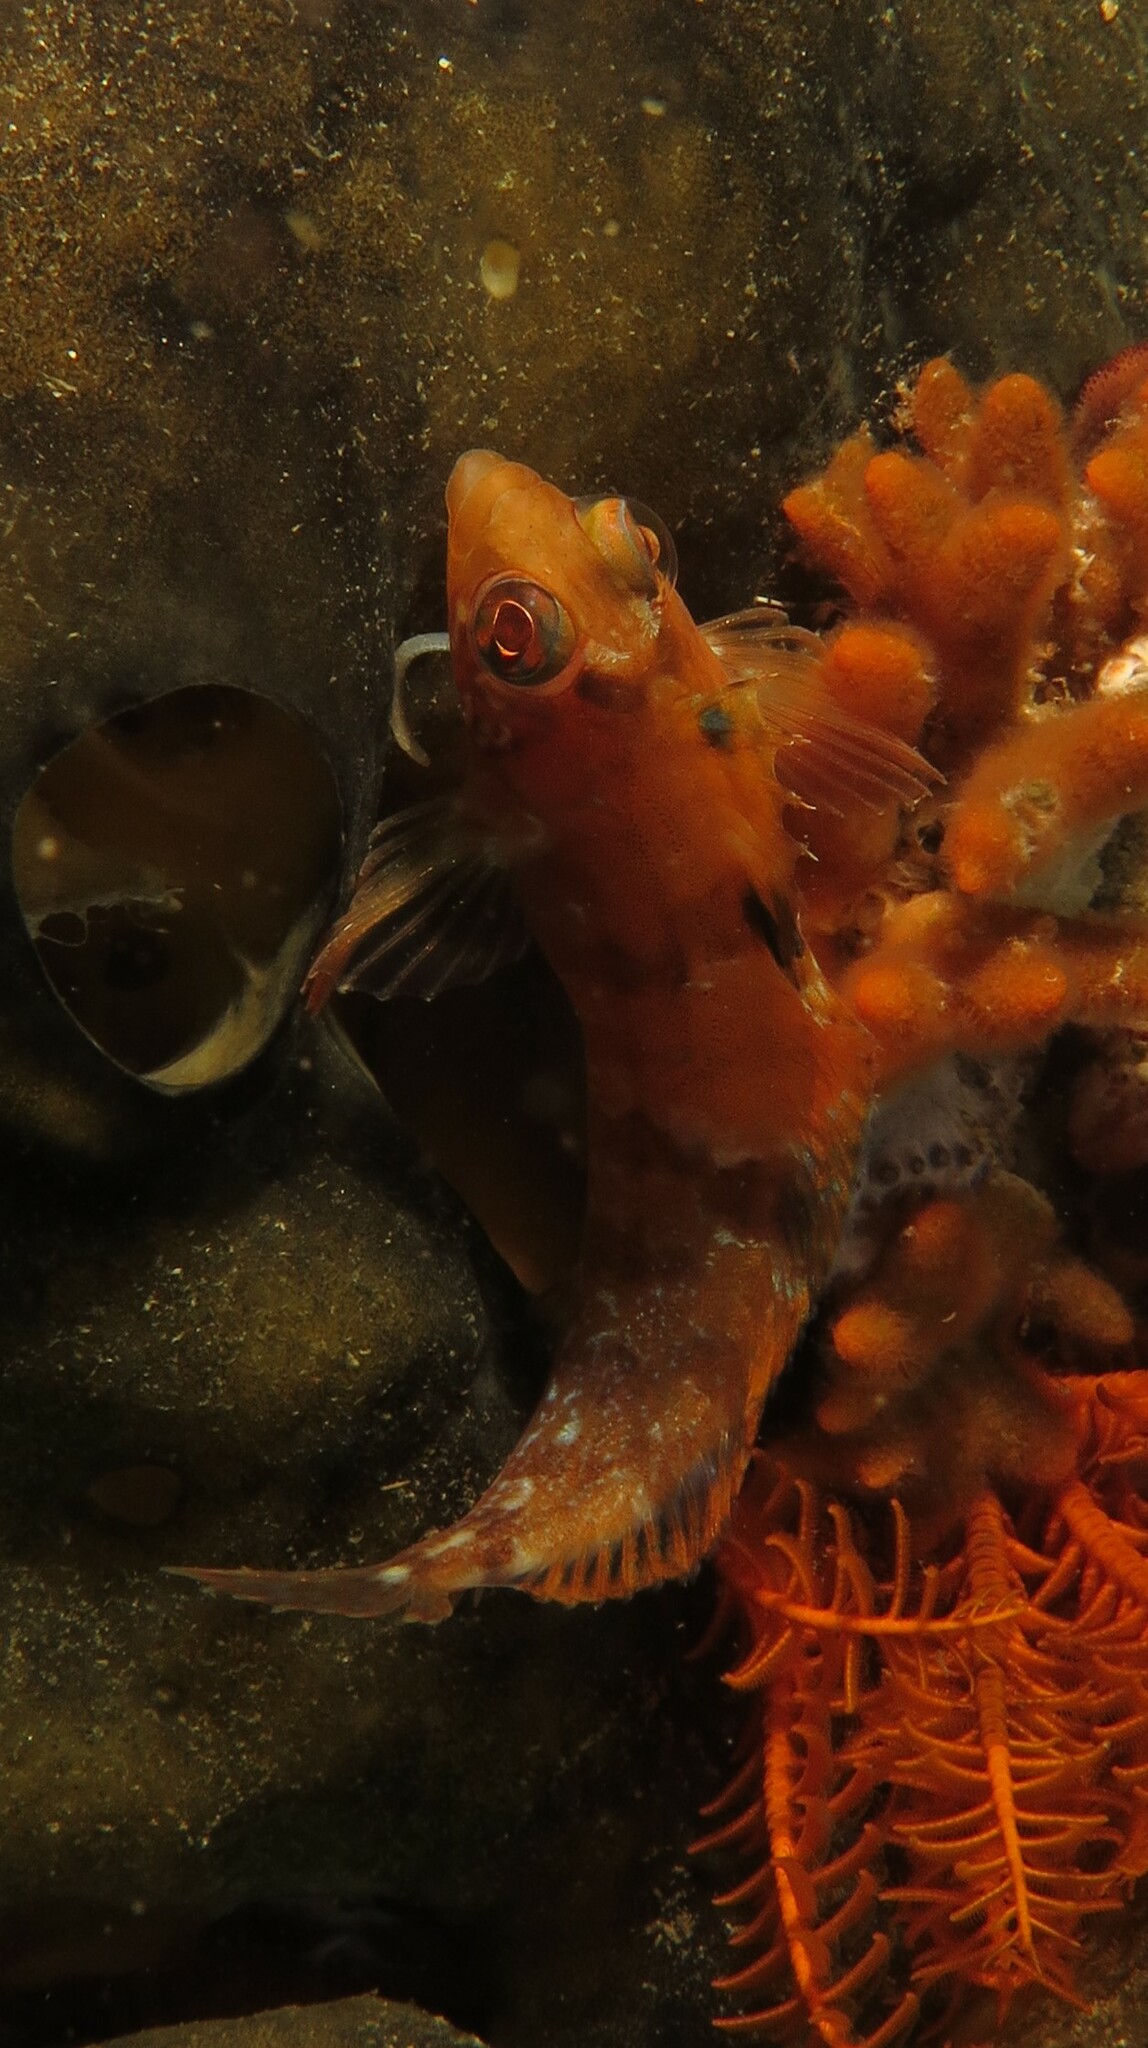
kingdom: Animalia
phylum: Chordata
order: Perciformes
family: Clinidae
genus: Clinus
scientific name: Clinus venustris
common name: Speckled klipfish
